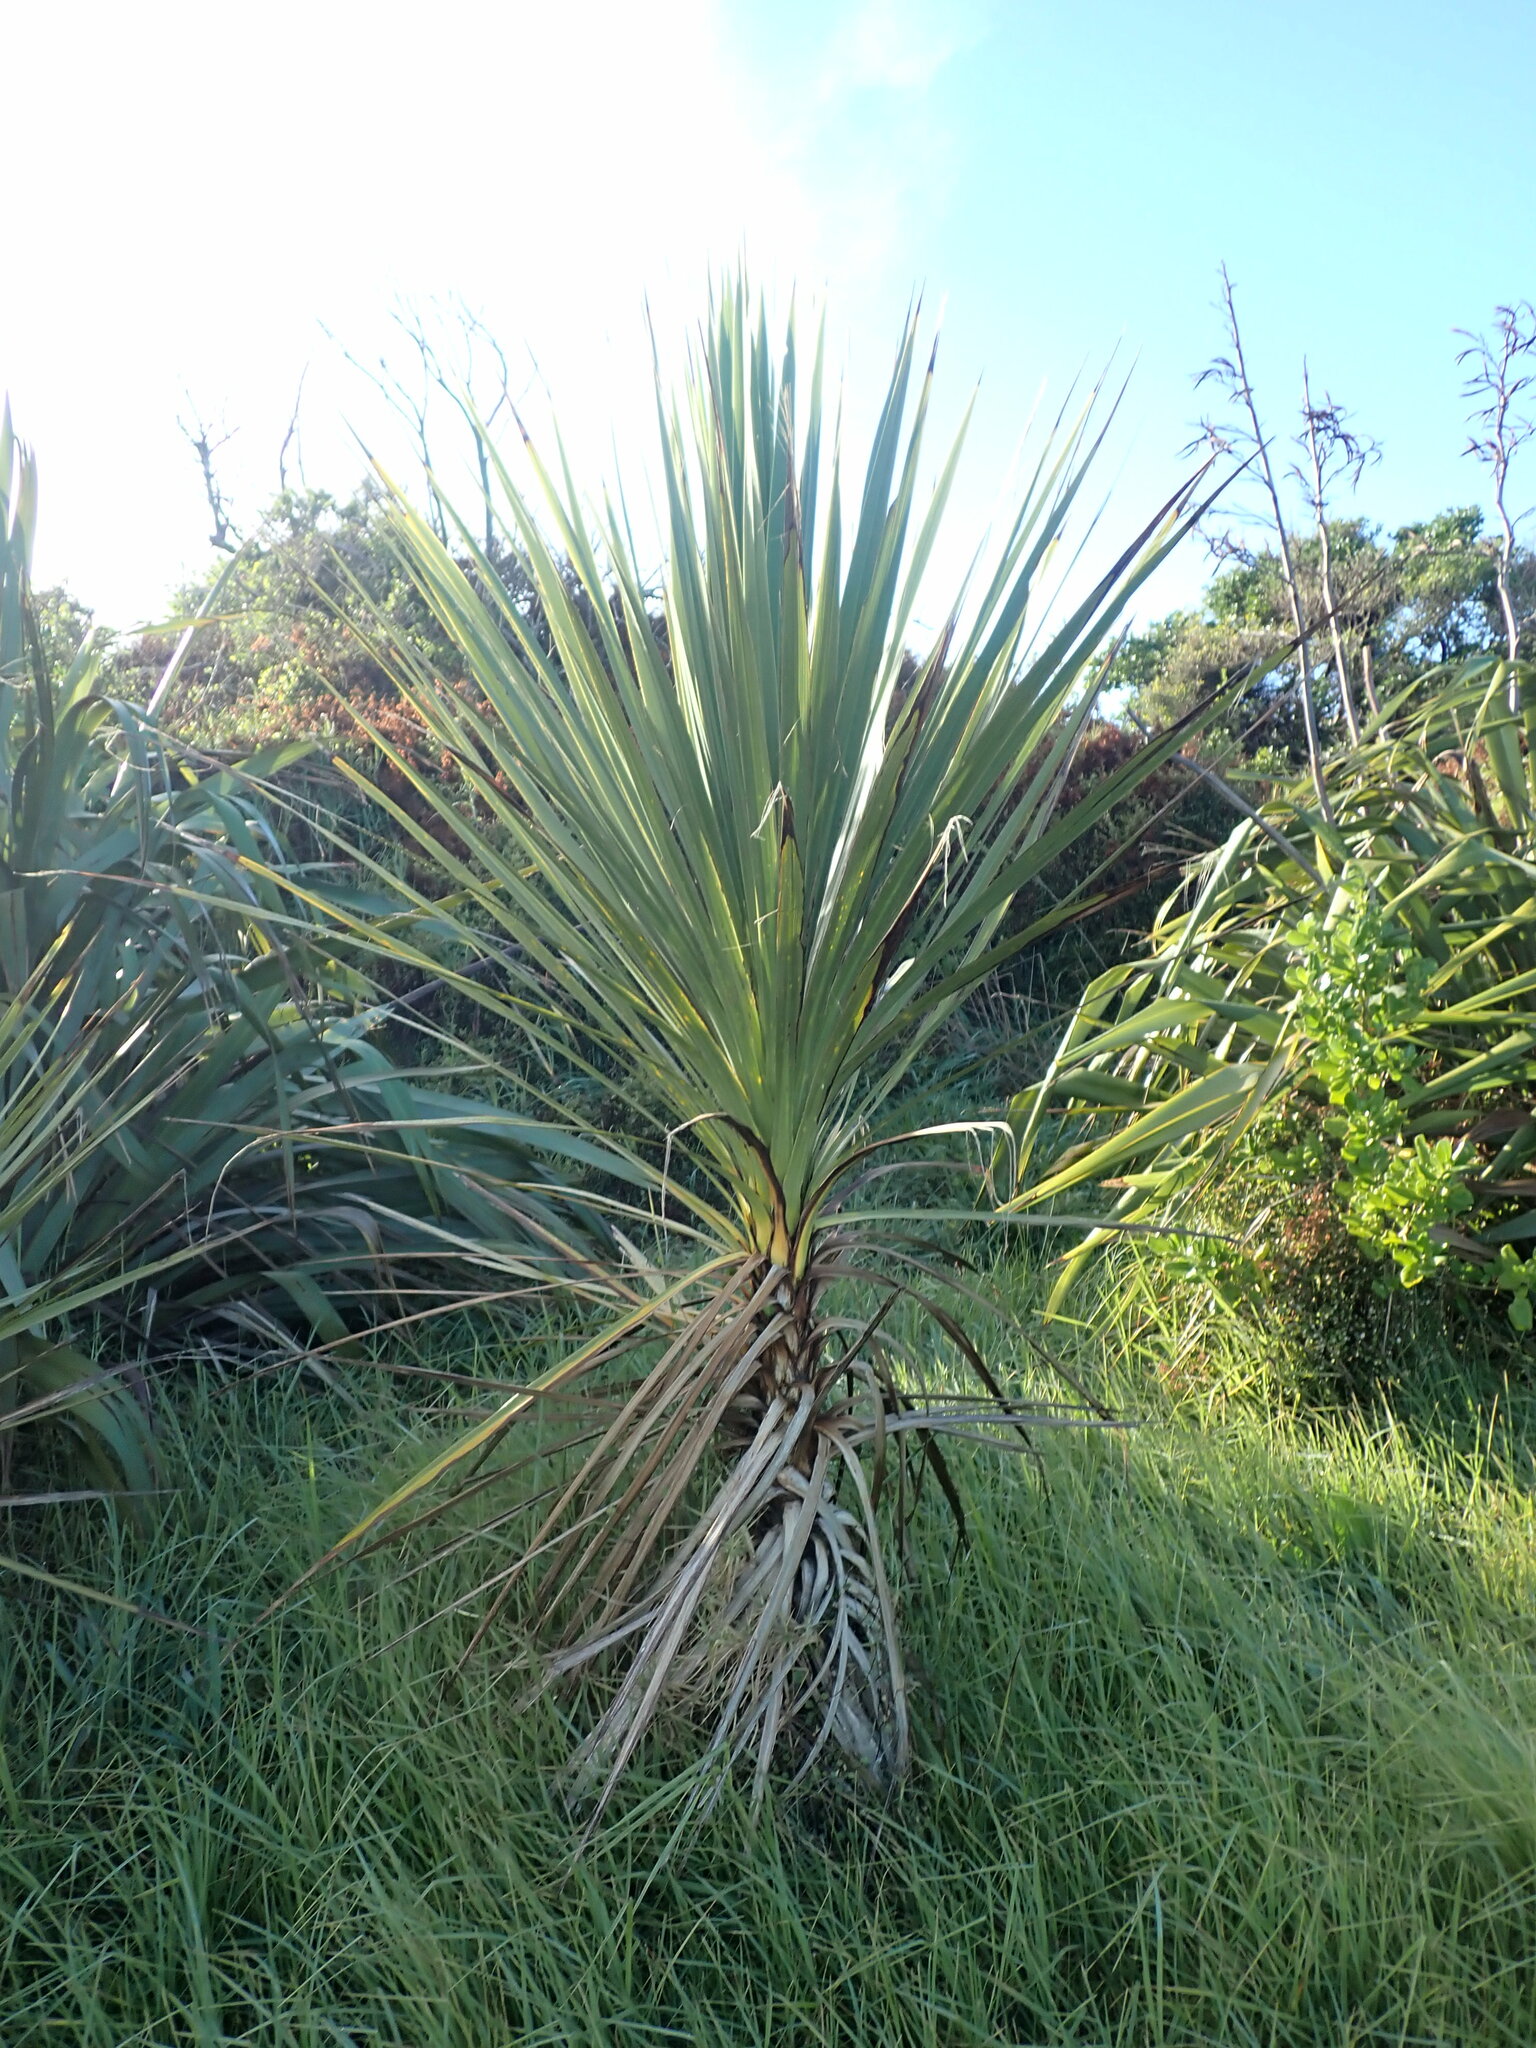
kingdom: Plantae
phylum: Tracheophyta
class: Liliopsida
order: Asparagales
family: Asparagaceae
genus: Cordyline
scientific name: Cordyline australis
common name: Cabbage-palm
